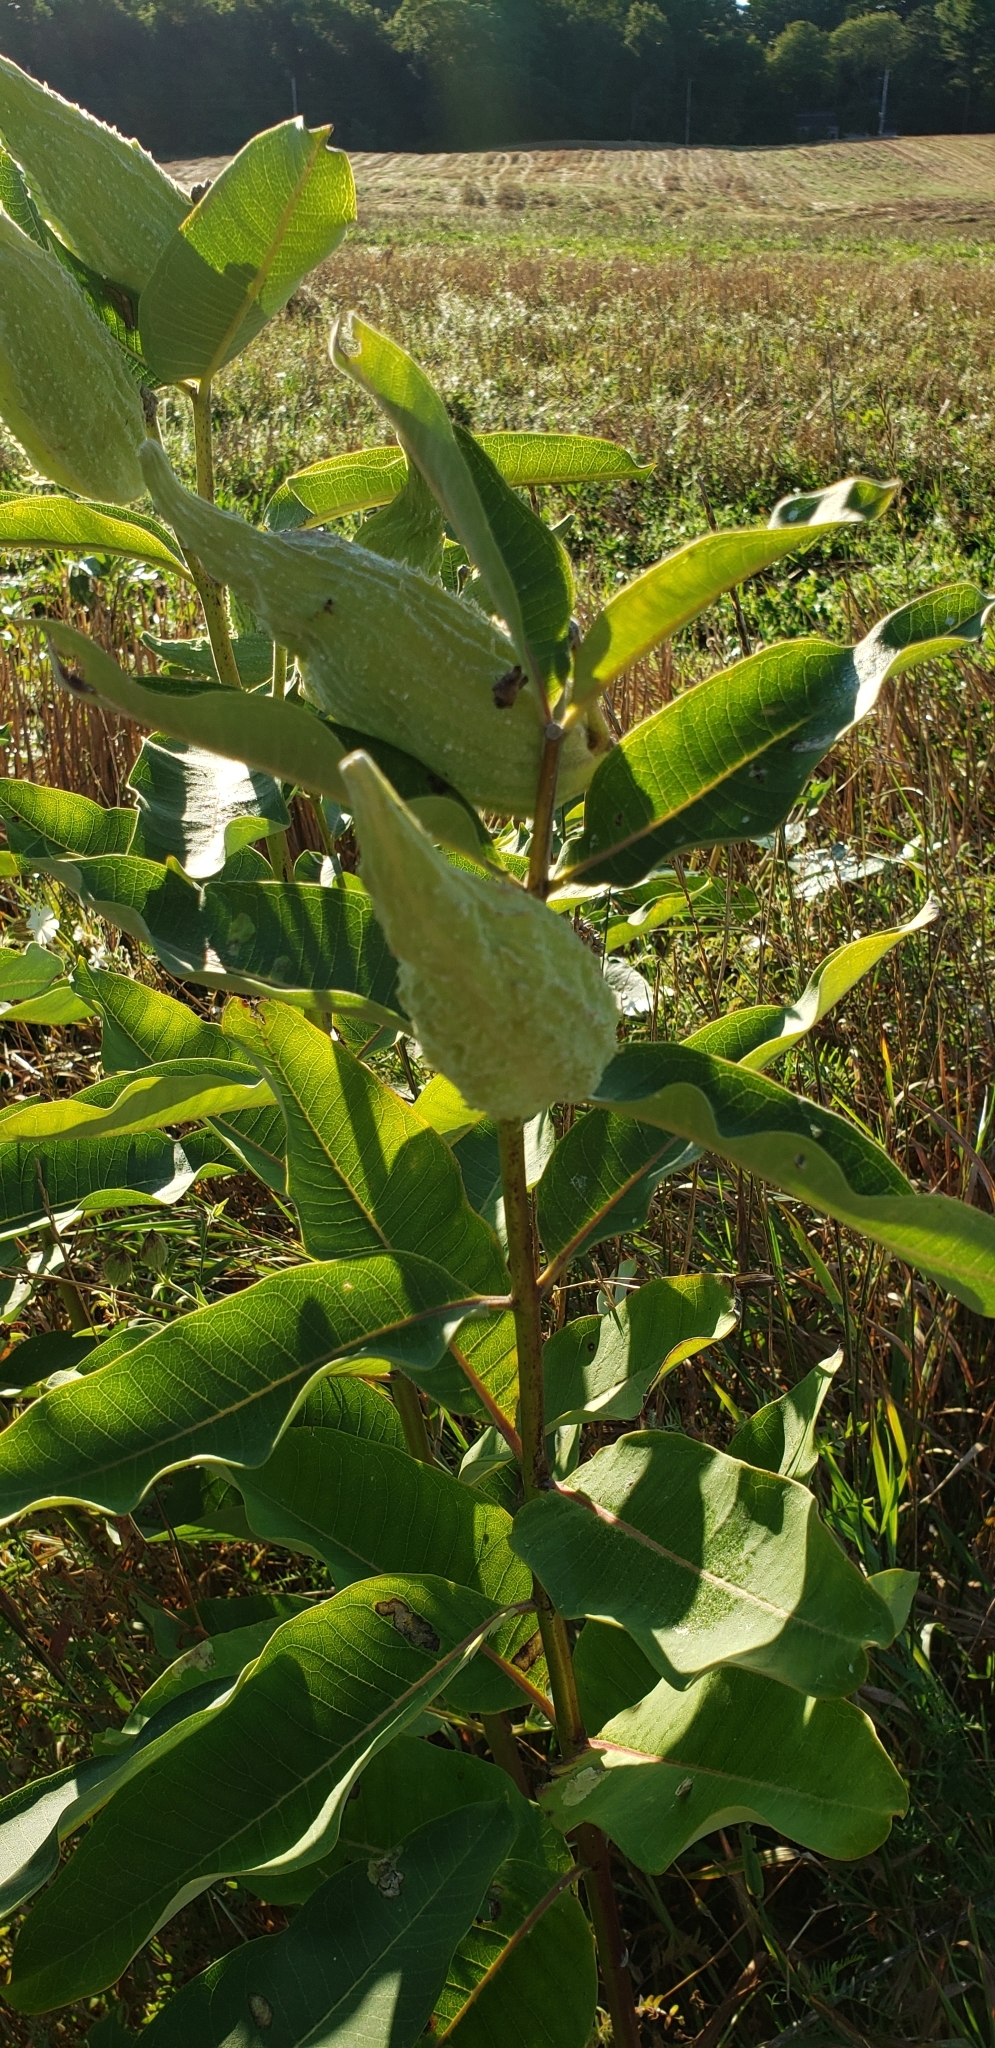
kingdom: Plantae
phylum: Tracheophyta
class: Magnoliopsida
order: Gentianales
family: Apocynaceae
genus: Asclepias
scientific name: Asclepias syriaca
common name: Common milkweed
